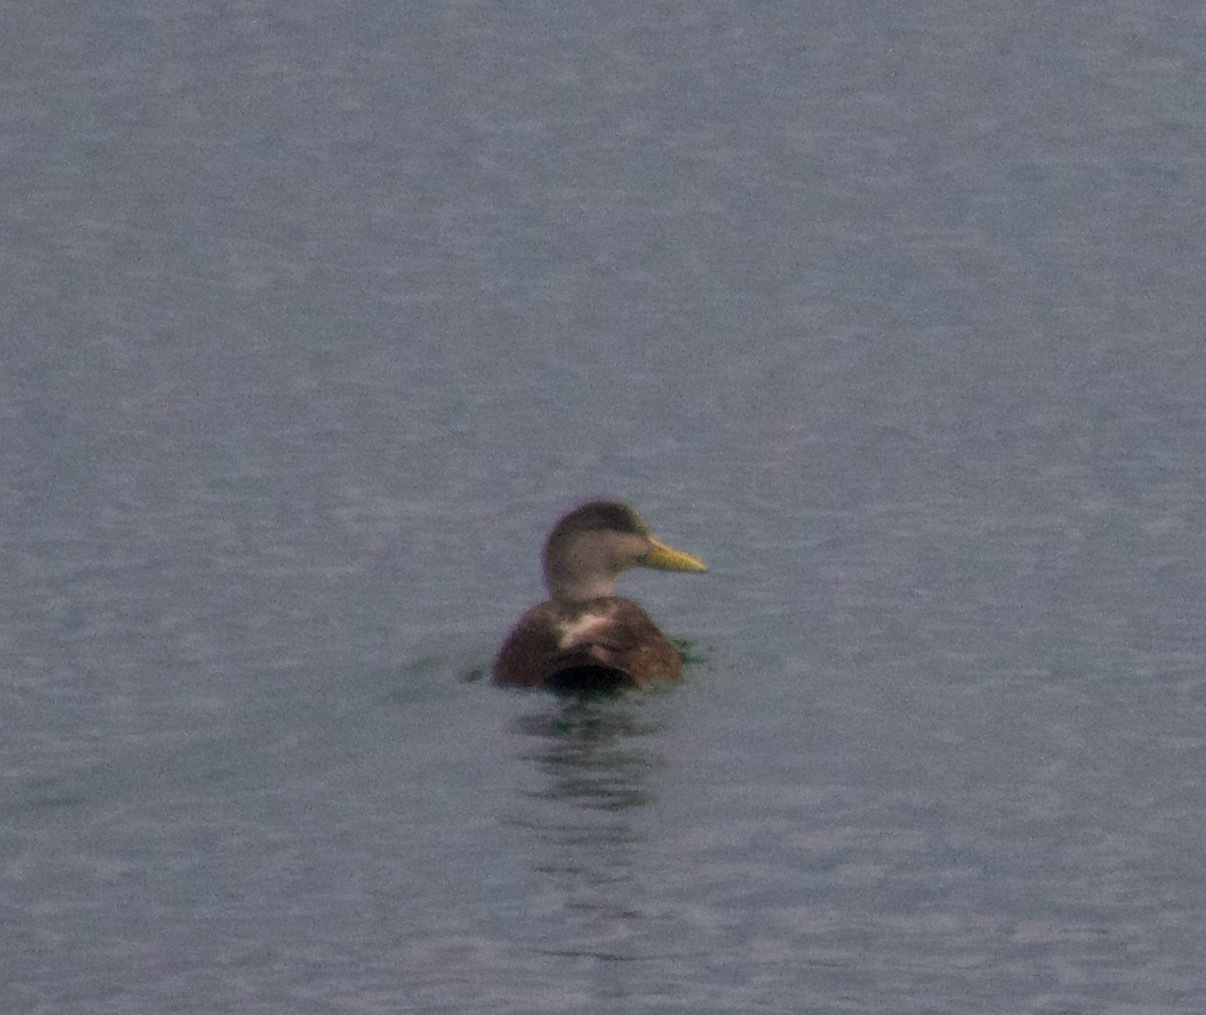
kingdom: Animalia
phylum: Chordata
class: Aves
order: Anseriformes
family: Anatidae
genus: Anas
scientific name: Anas rubripes
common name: American black duck
